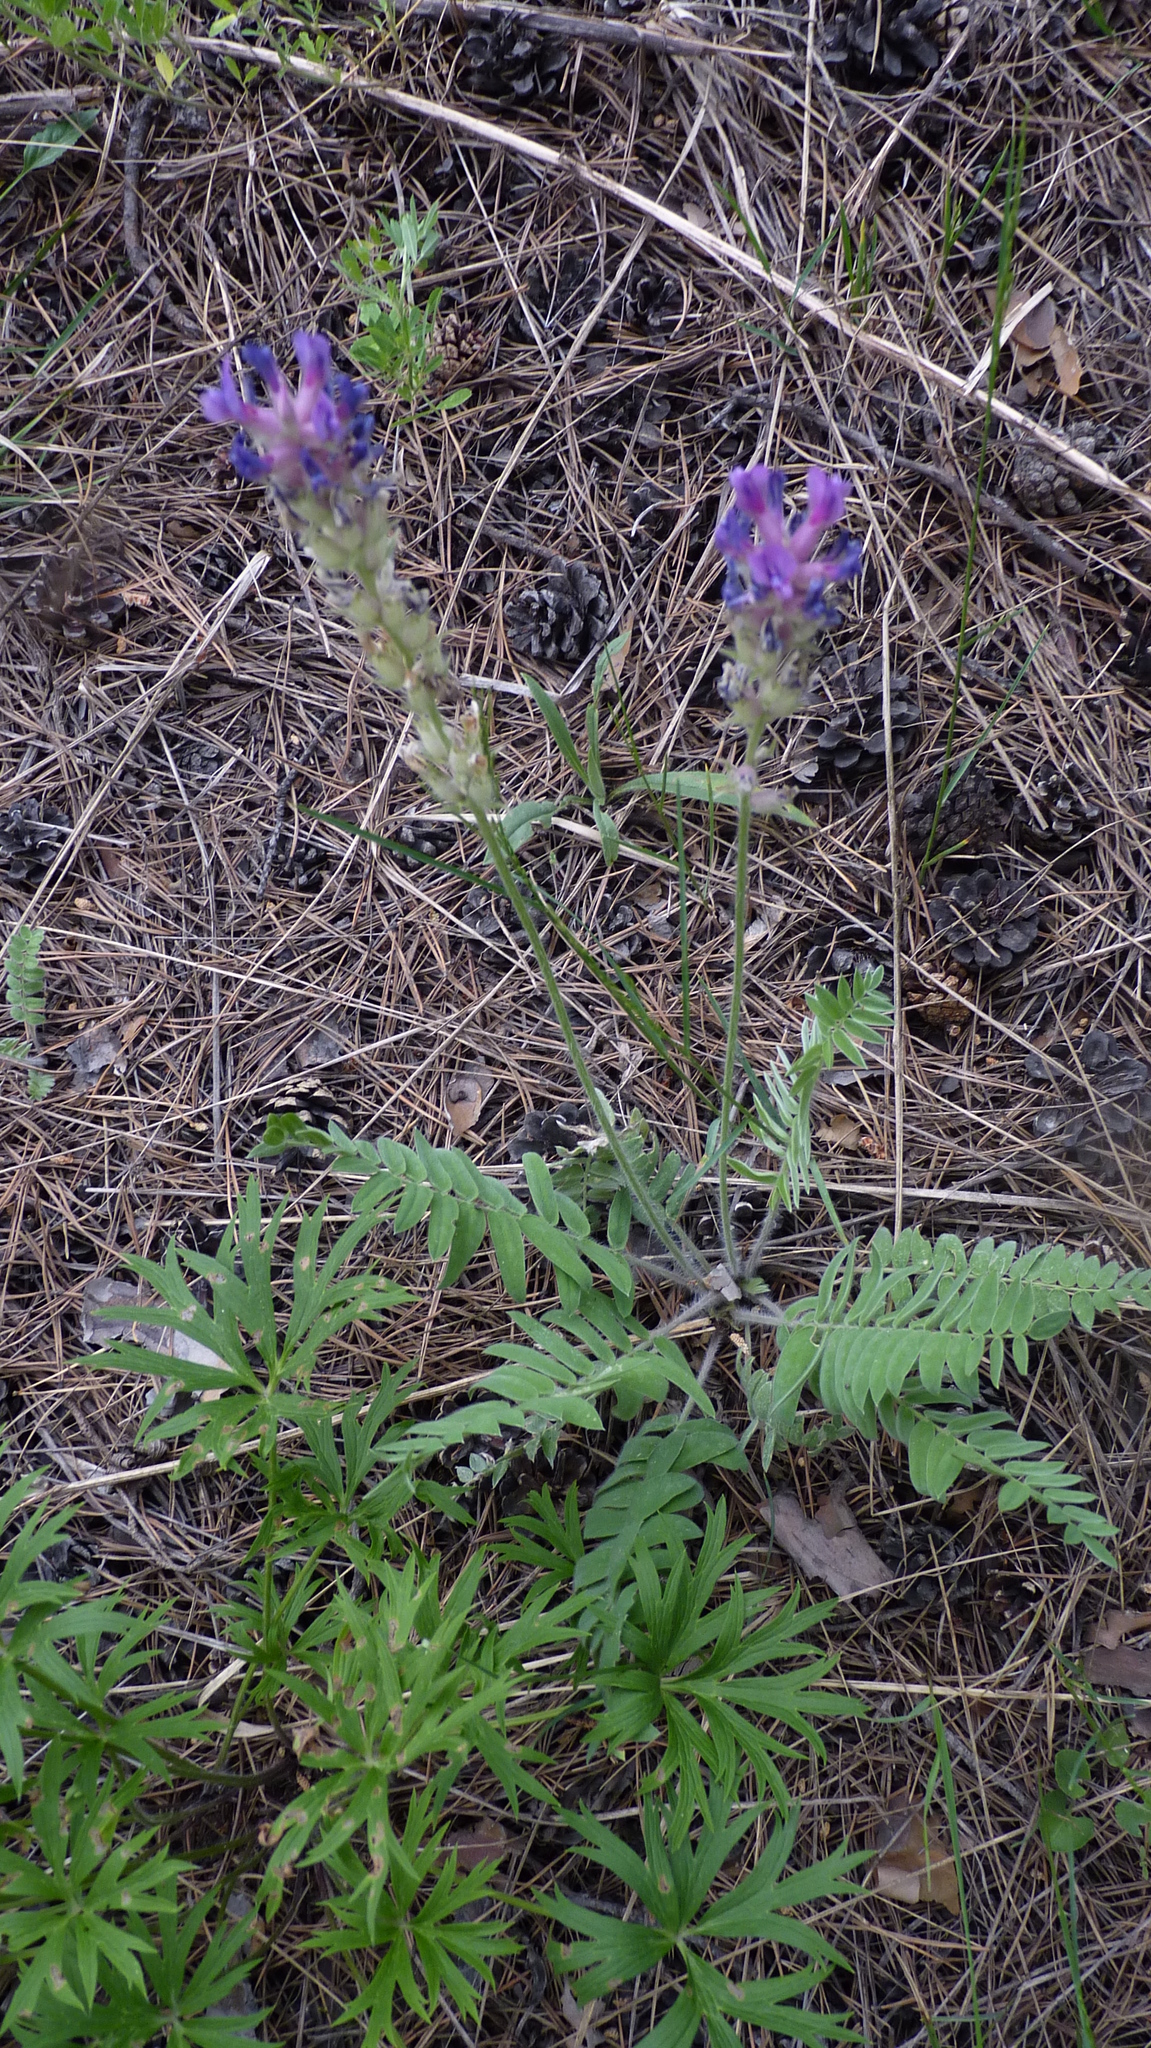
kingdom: Plantae
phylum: Tracheophyta
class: Magnoliopsida
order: Fabales
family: Fabaceae
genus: Oxytropis
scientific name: Oxytropis campanulata
